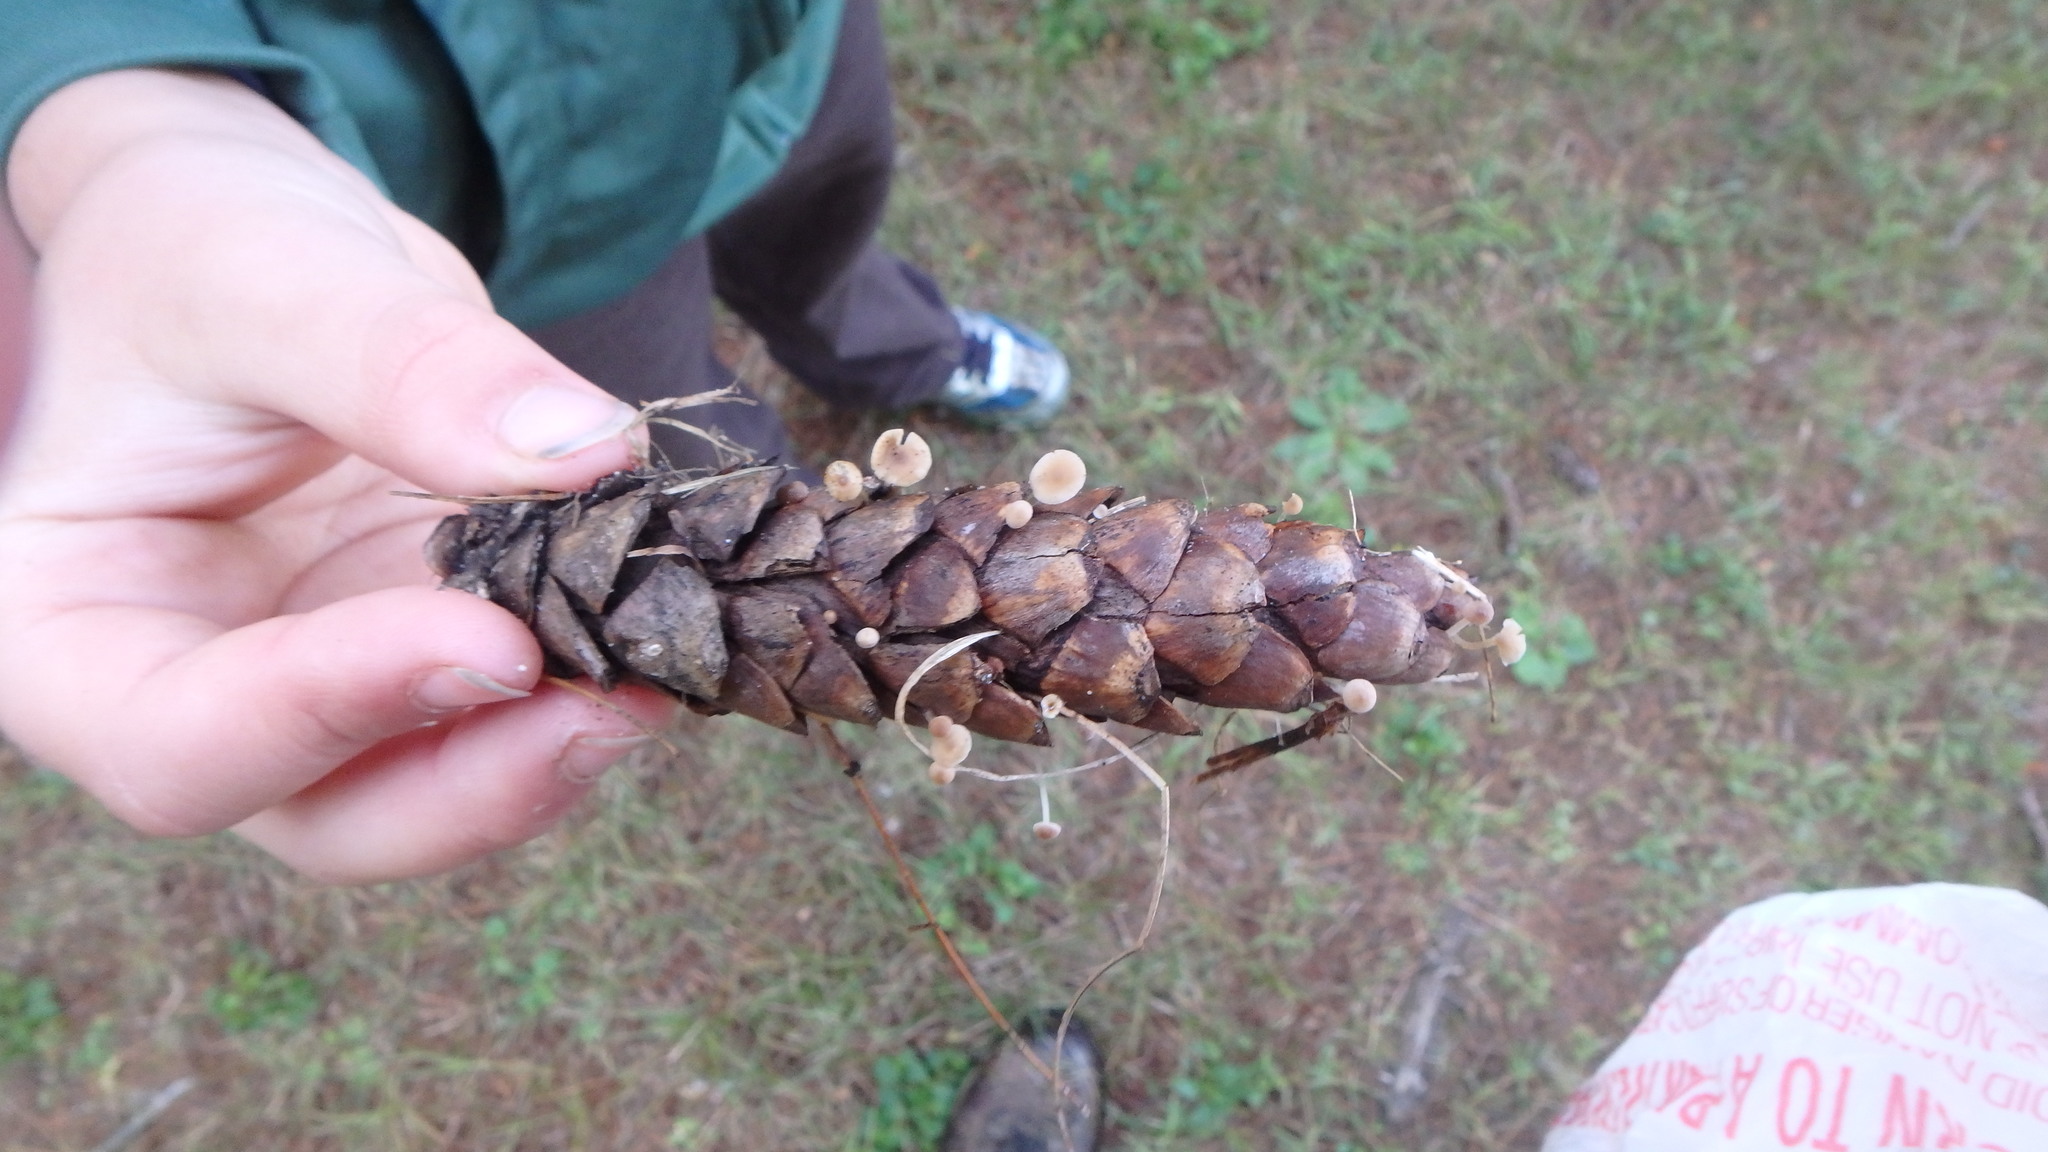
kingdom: Fungi
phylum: Basidiomycota
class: Agaricomycetes
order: Agaricales
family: Marasmiaceae
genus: Baeospora
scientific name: Baeospora myosura
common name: Conifercone cap
